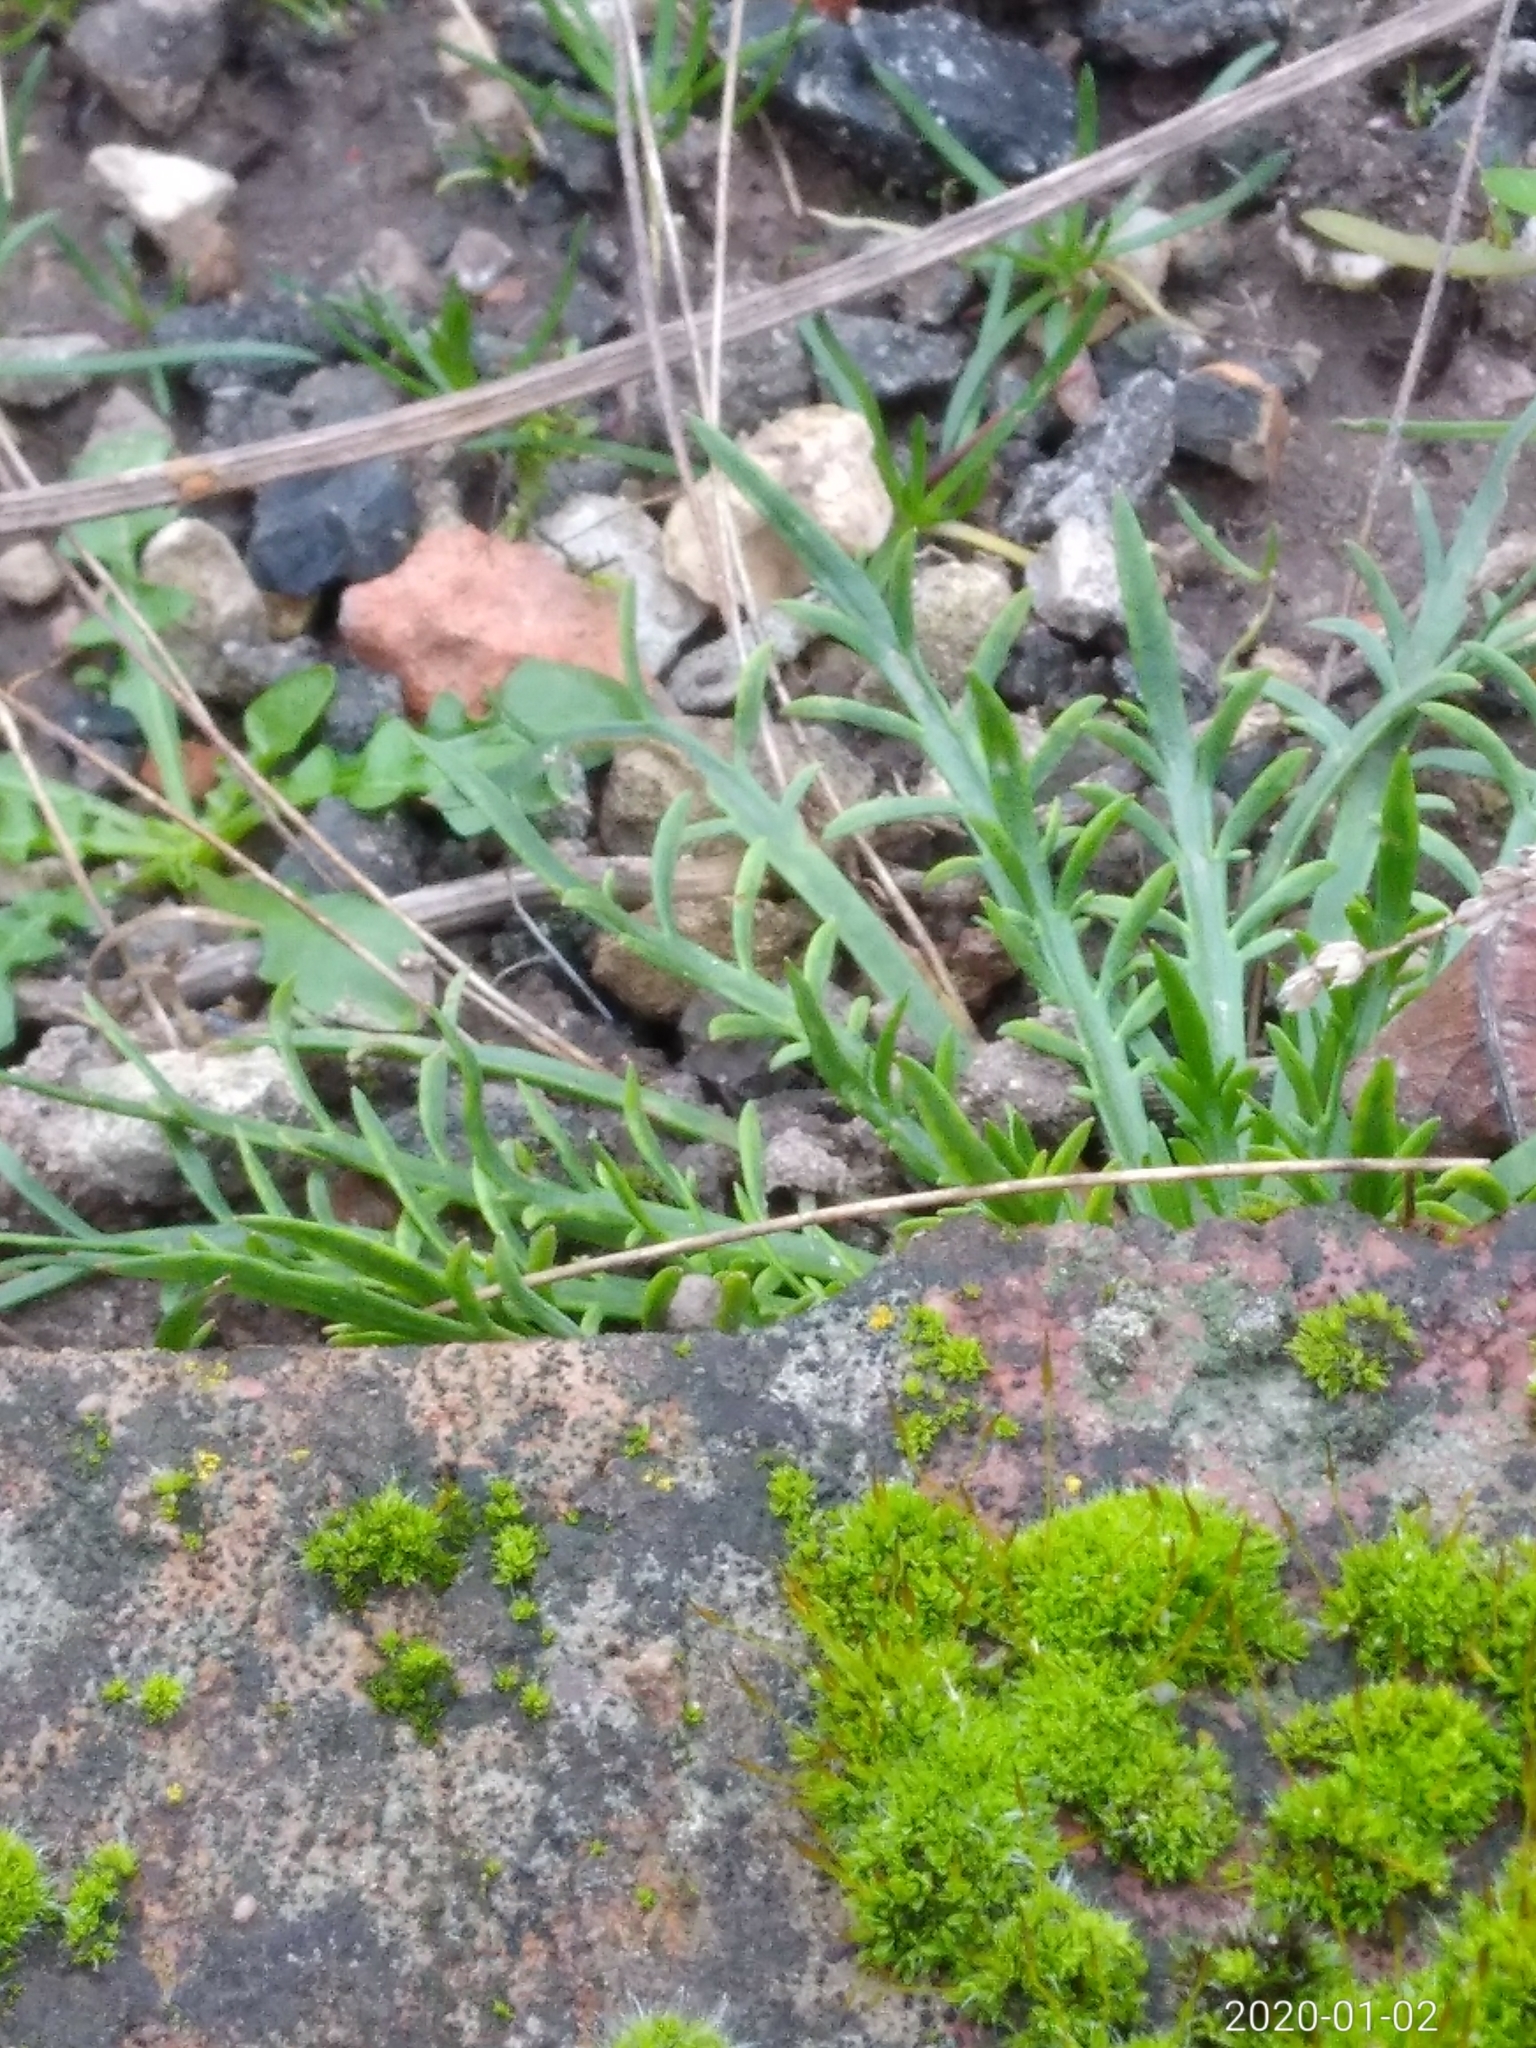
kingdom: Plantae
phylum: Tracheophyta
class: Magnoliopsida
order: Lamiales
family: Plantaginaceae
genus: Plantago
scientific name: Plantago coronopus
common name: Buck's-horn plantain
